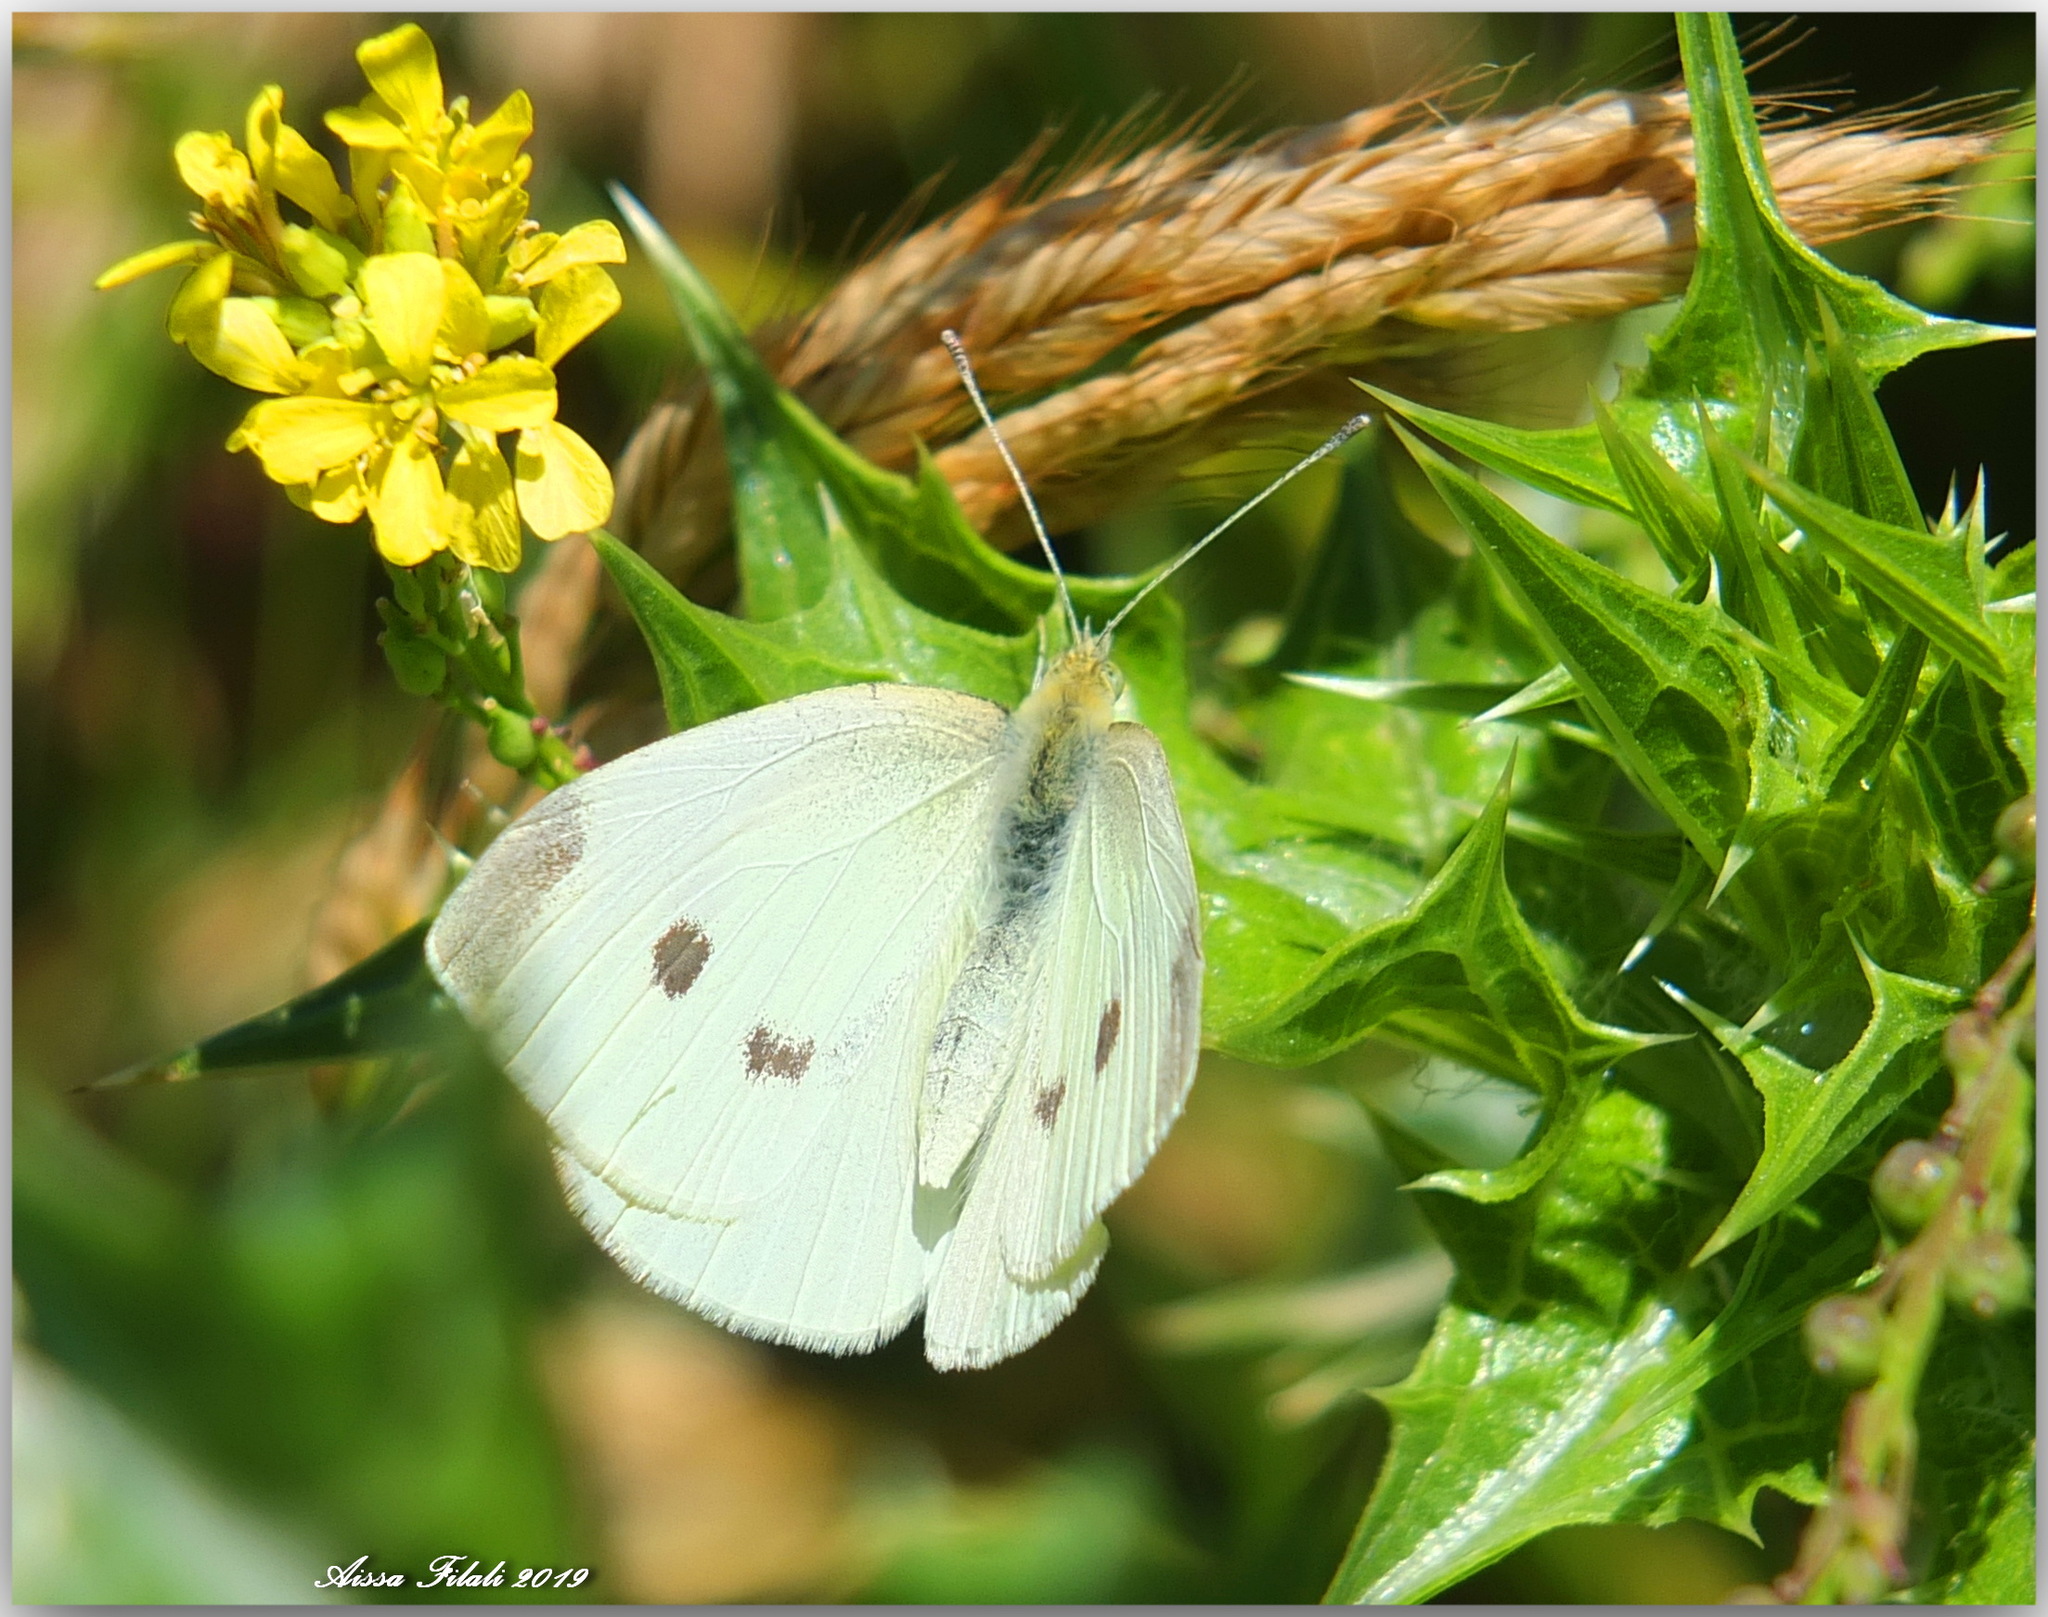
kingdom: Animalia
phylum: Arthropoda
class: Insecta
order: Lepidoptera
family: Pieridae
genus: Pieris
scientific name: Pieris rapae
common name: Small white
